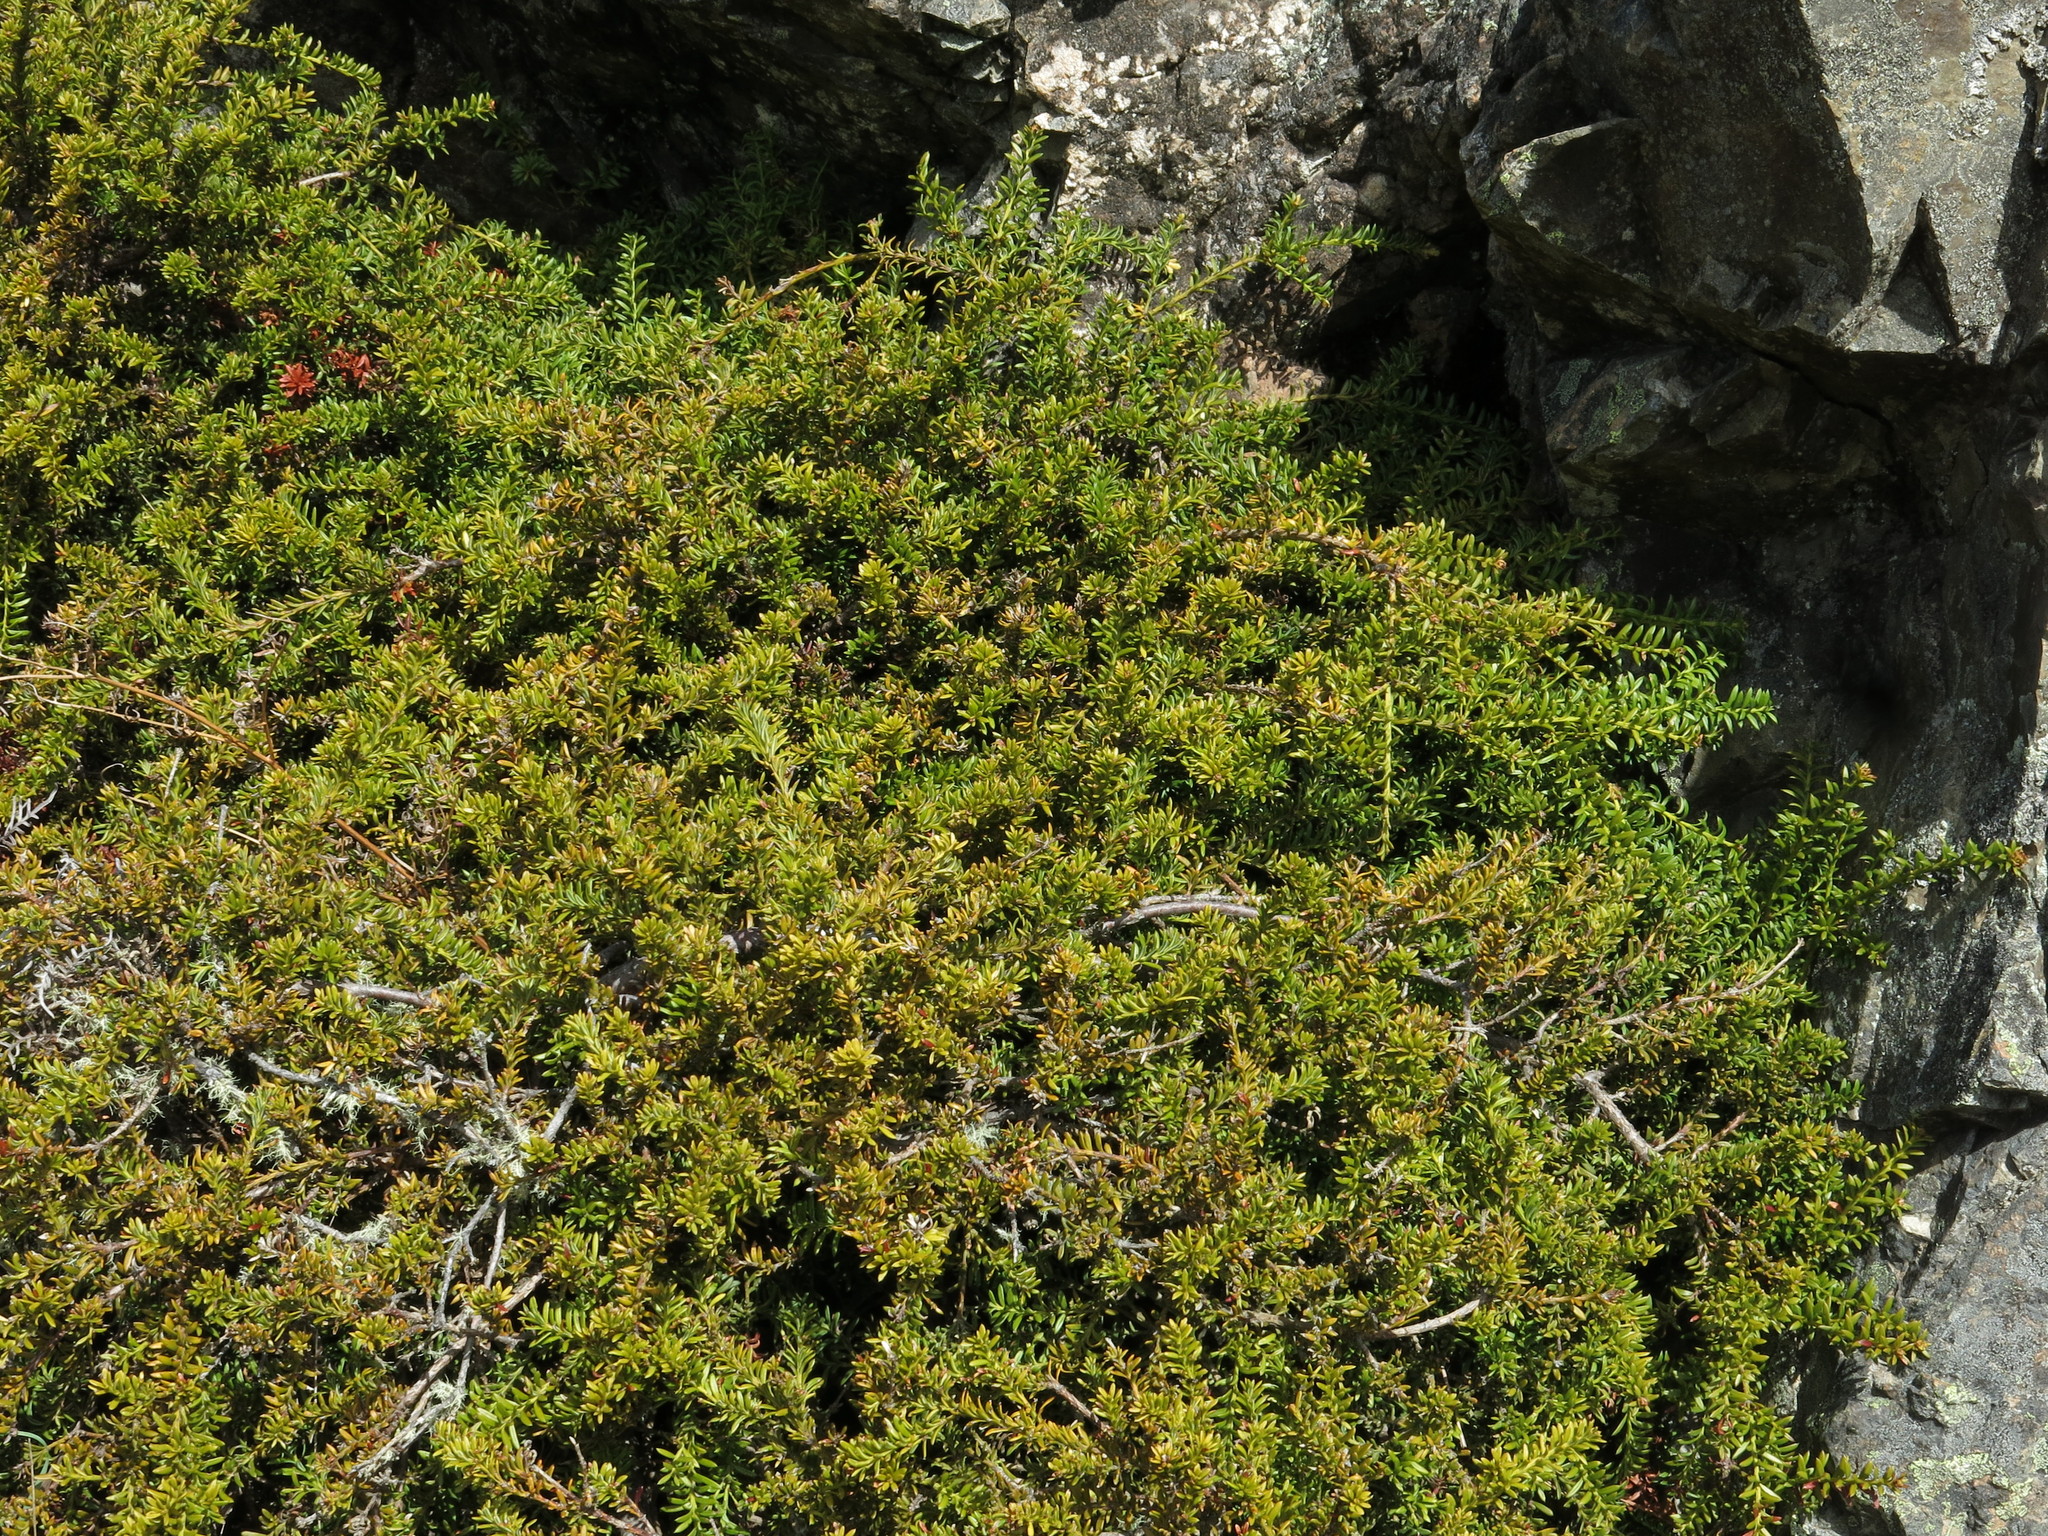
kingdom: Plantae
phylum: Tracheophyta
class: Pinopsida
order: Pinales
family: Podocarpaceae
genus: Podocarpus
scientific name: Podocarpus nivalis
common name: Alpine totara
